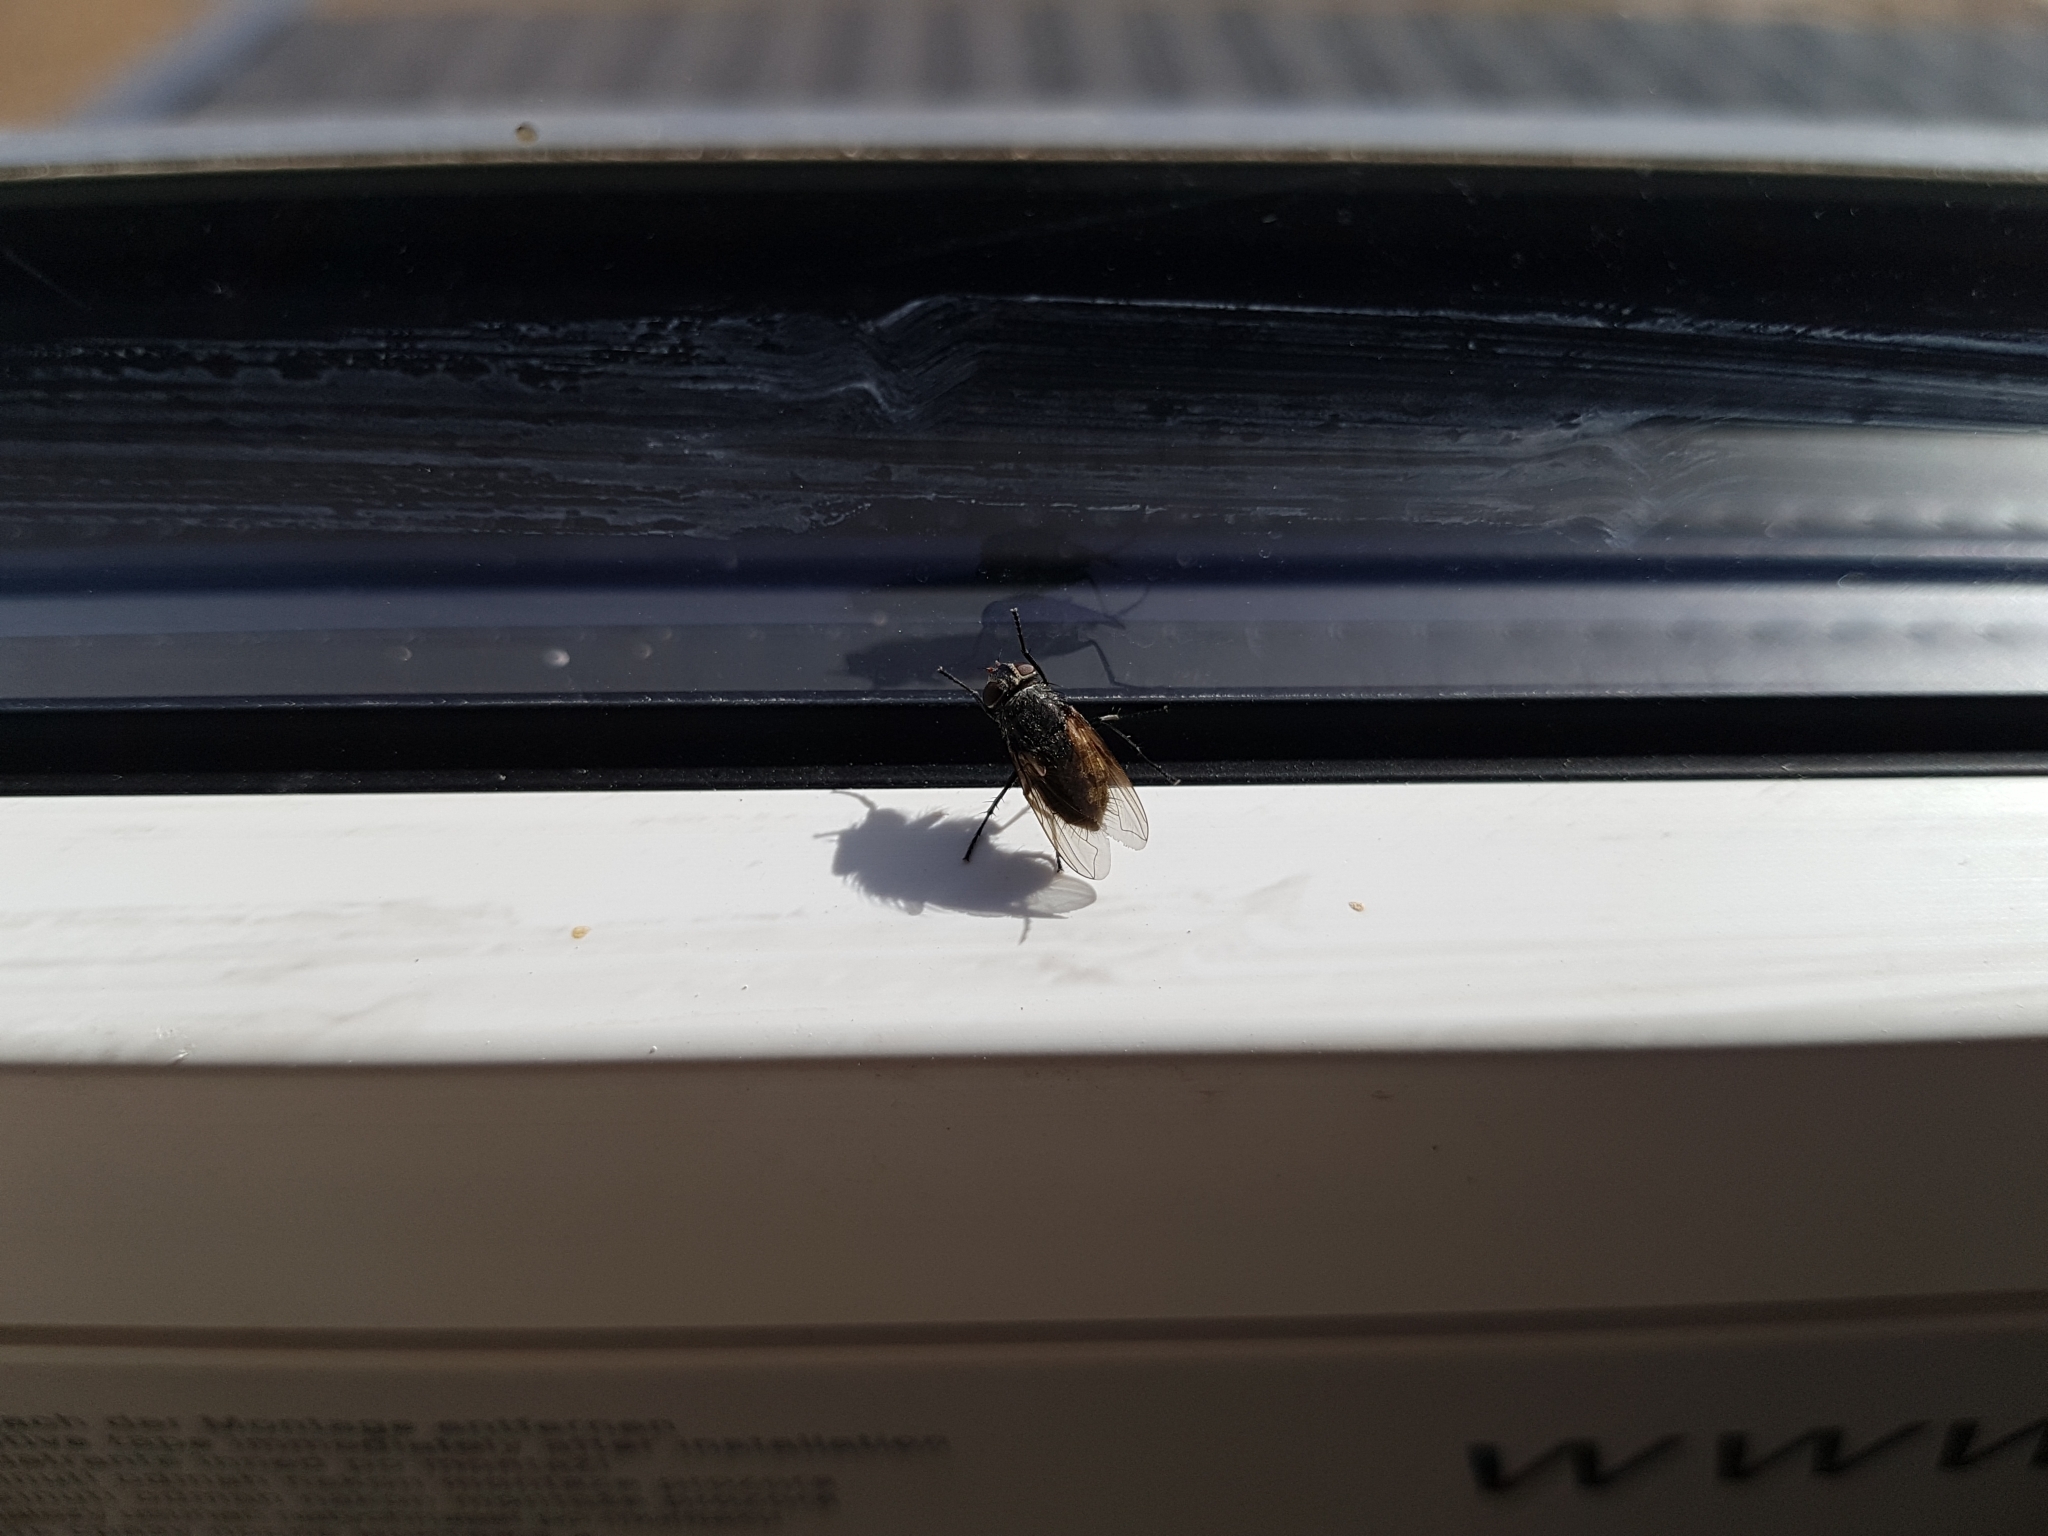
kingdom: Animalia
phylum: Arthropoda
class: Insecta
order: Diptera
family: Polleniidae
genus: Pollenia
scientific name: Pollenia
